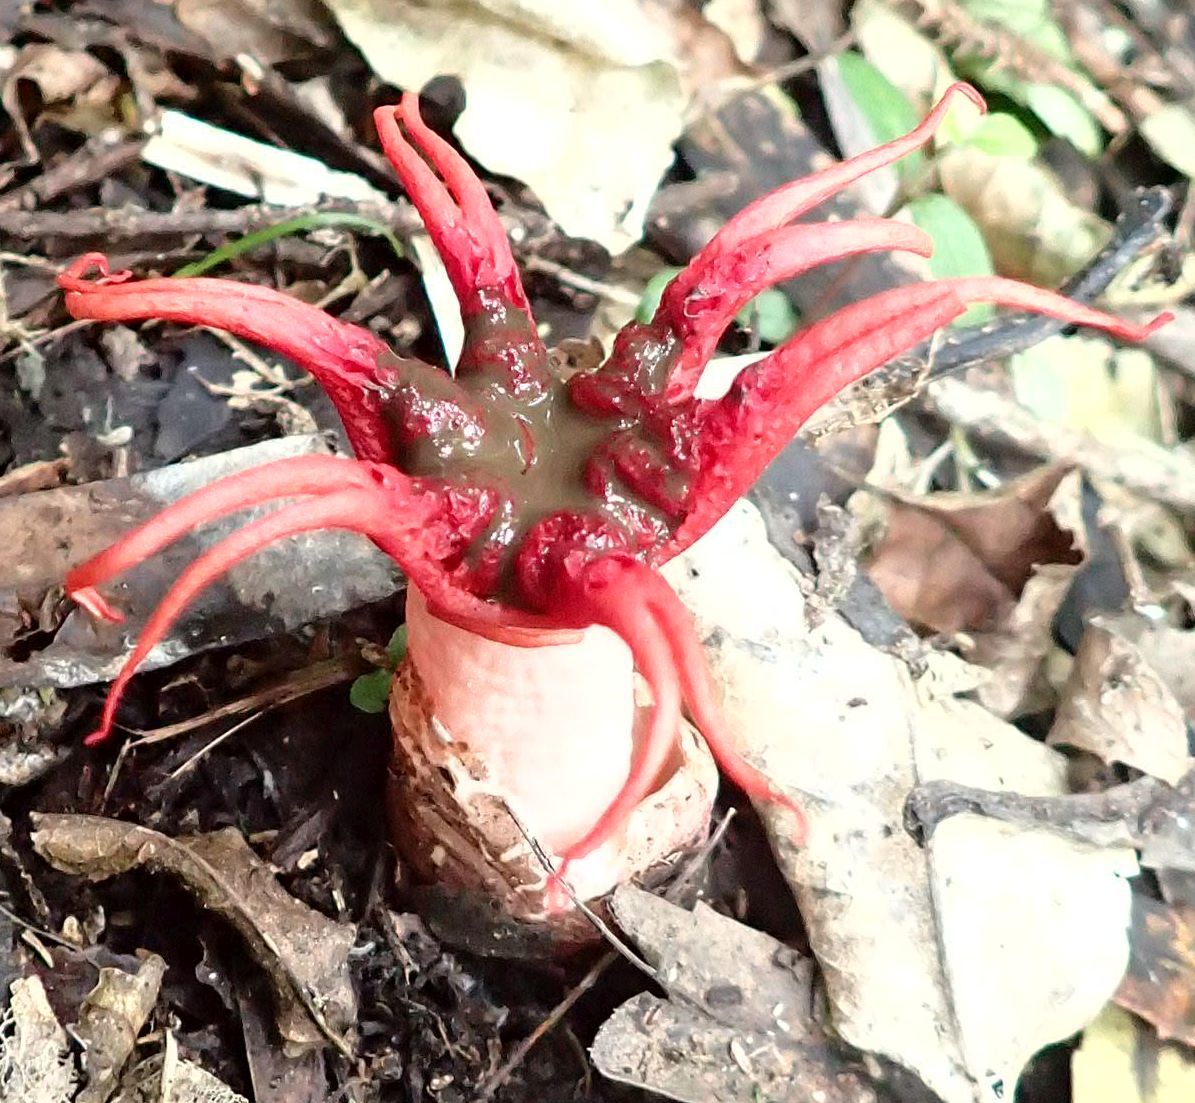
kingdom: Fungi
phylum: Basidiomycota
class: Agaricomycetes
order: Phallales
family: Phallaceae
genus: Aseroe
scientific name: Aseroe rubra
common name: Starfish fungus
